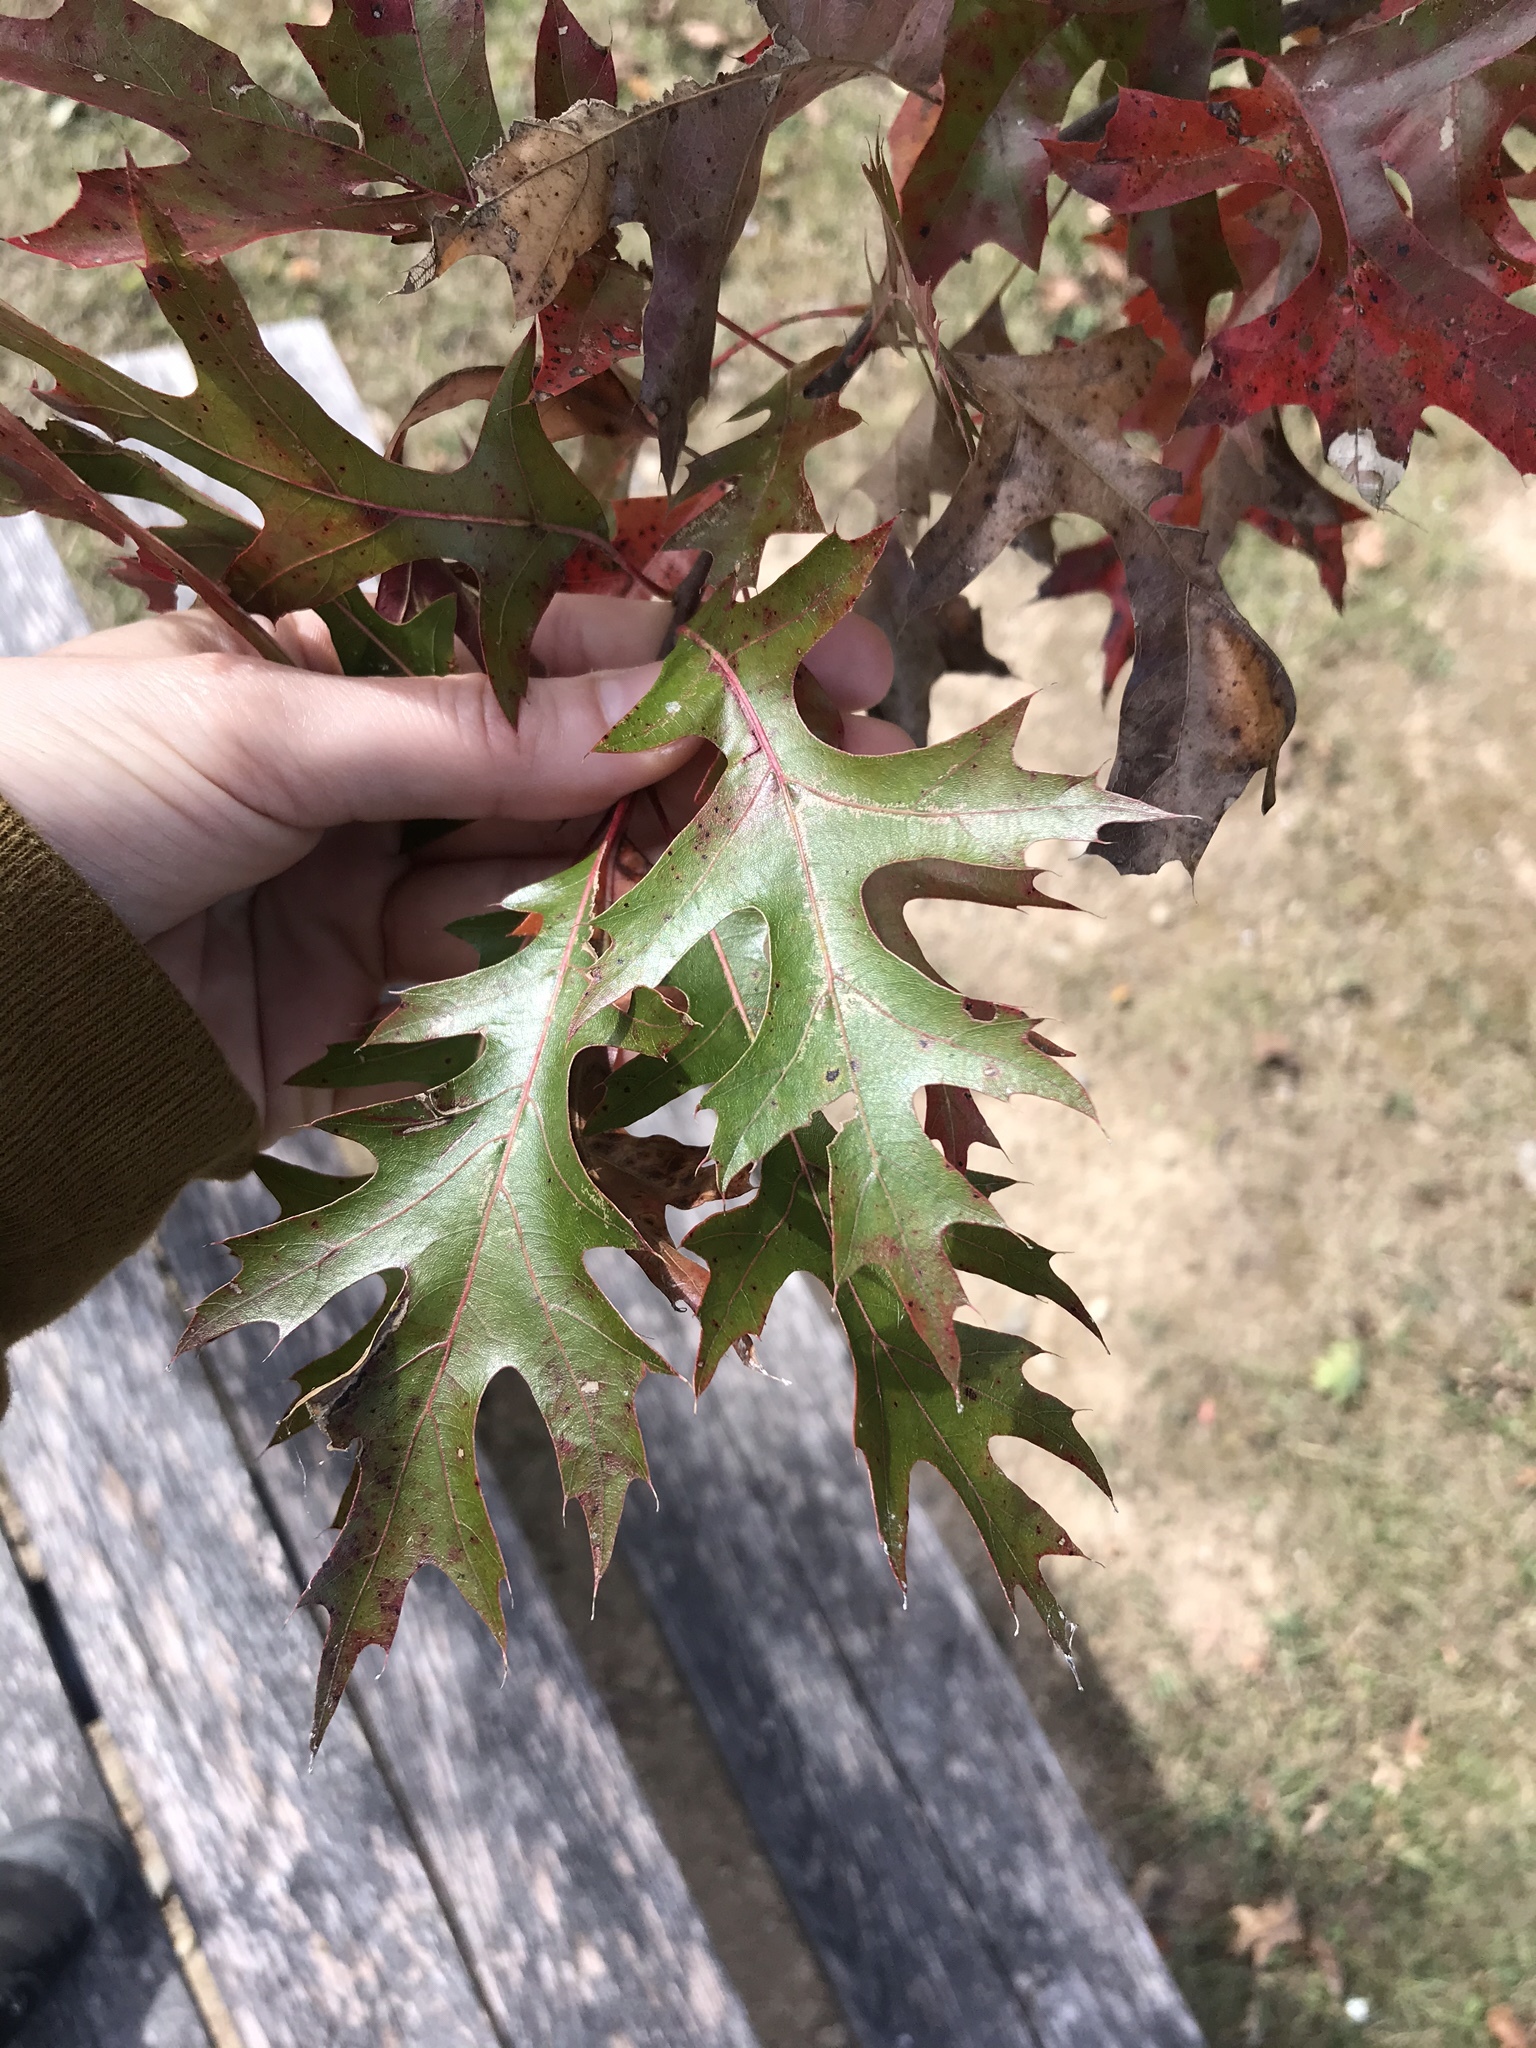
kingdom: Plantae
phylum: Tracheophyta
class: Magnoliopsida
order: Fagales
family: Fagaceae
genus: Quercus
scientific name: Quercus coccinea
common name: Scarlet oak
